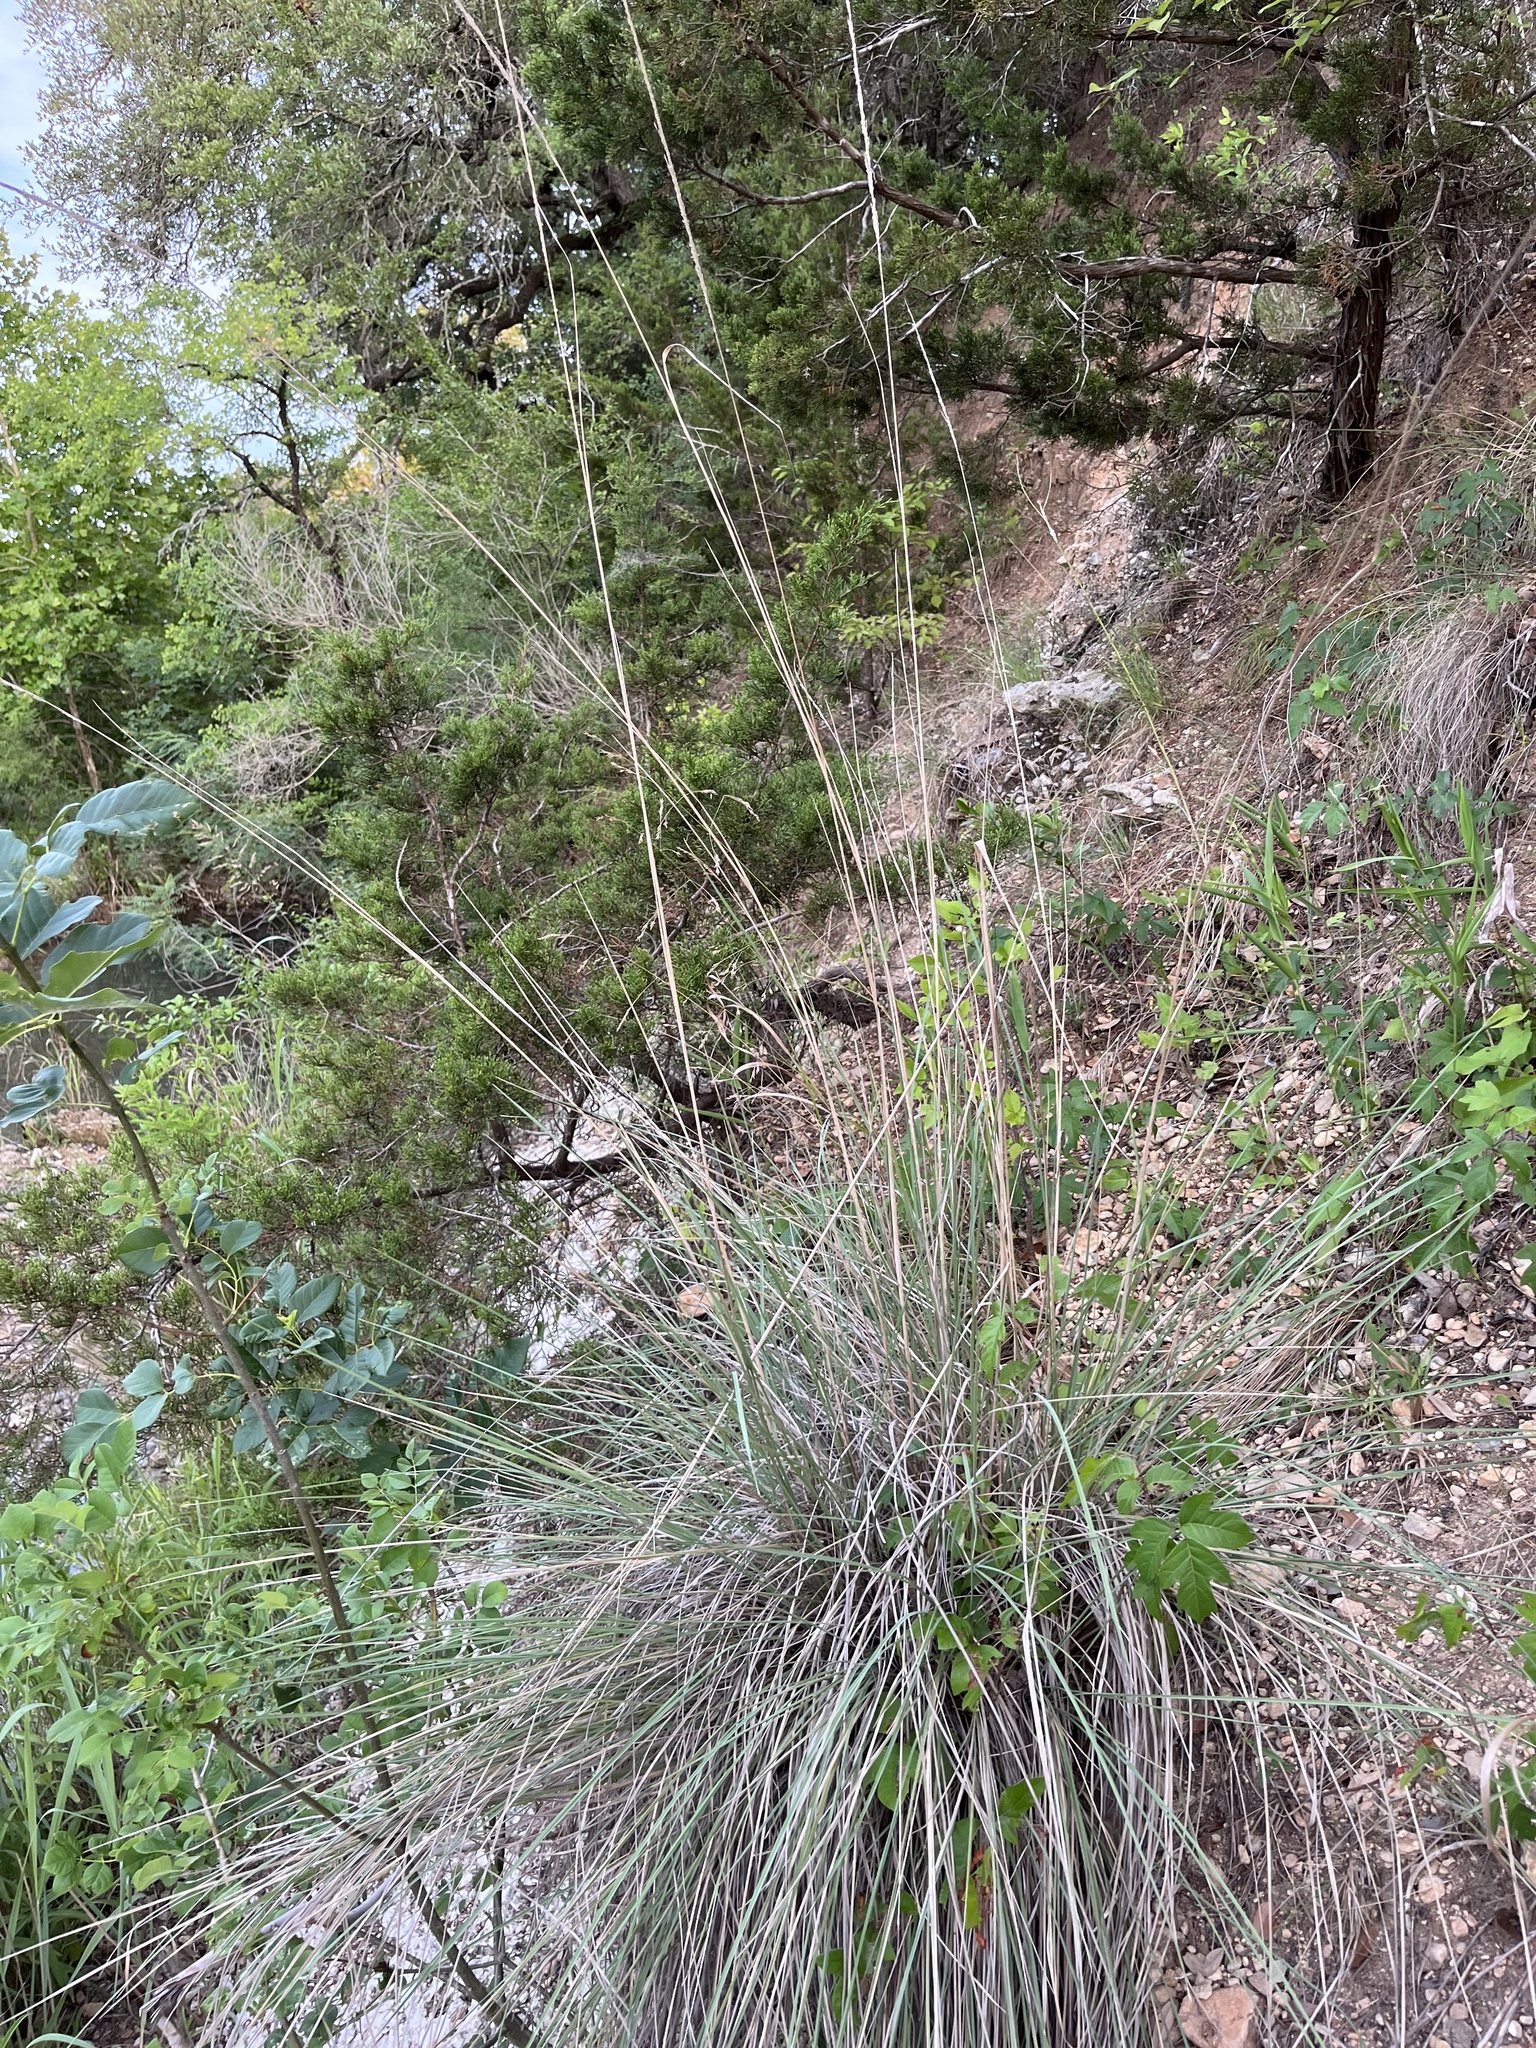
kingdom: Plantae
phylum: Tracheophyta
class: Liliopsida
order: Poales
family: Poaceae
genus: Muhlenbergia
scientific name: Muhlenbergia lindheimeri
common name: Lindheimer's muhly
